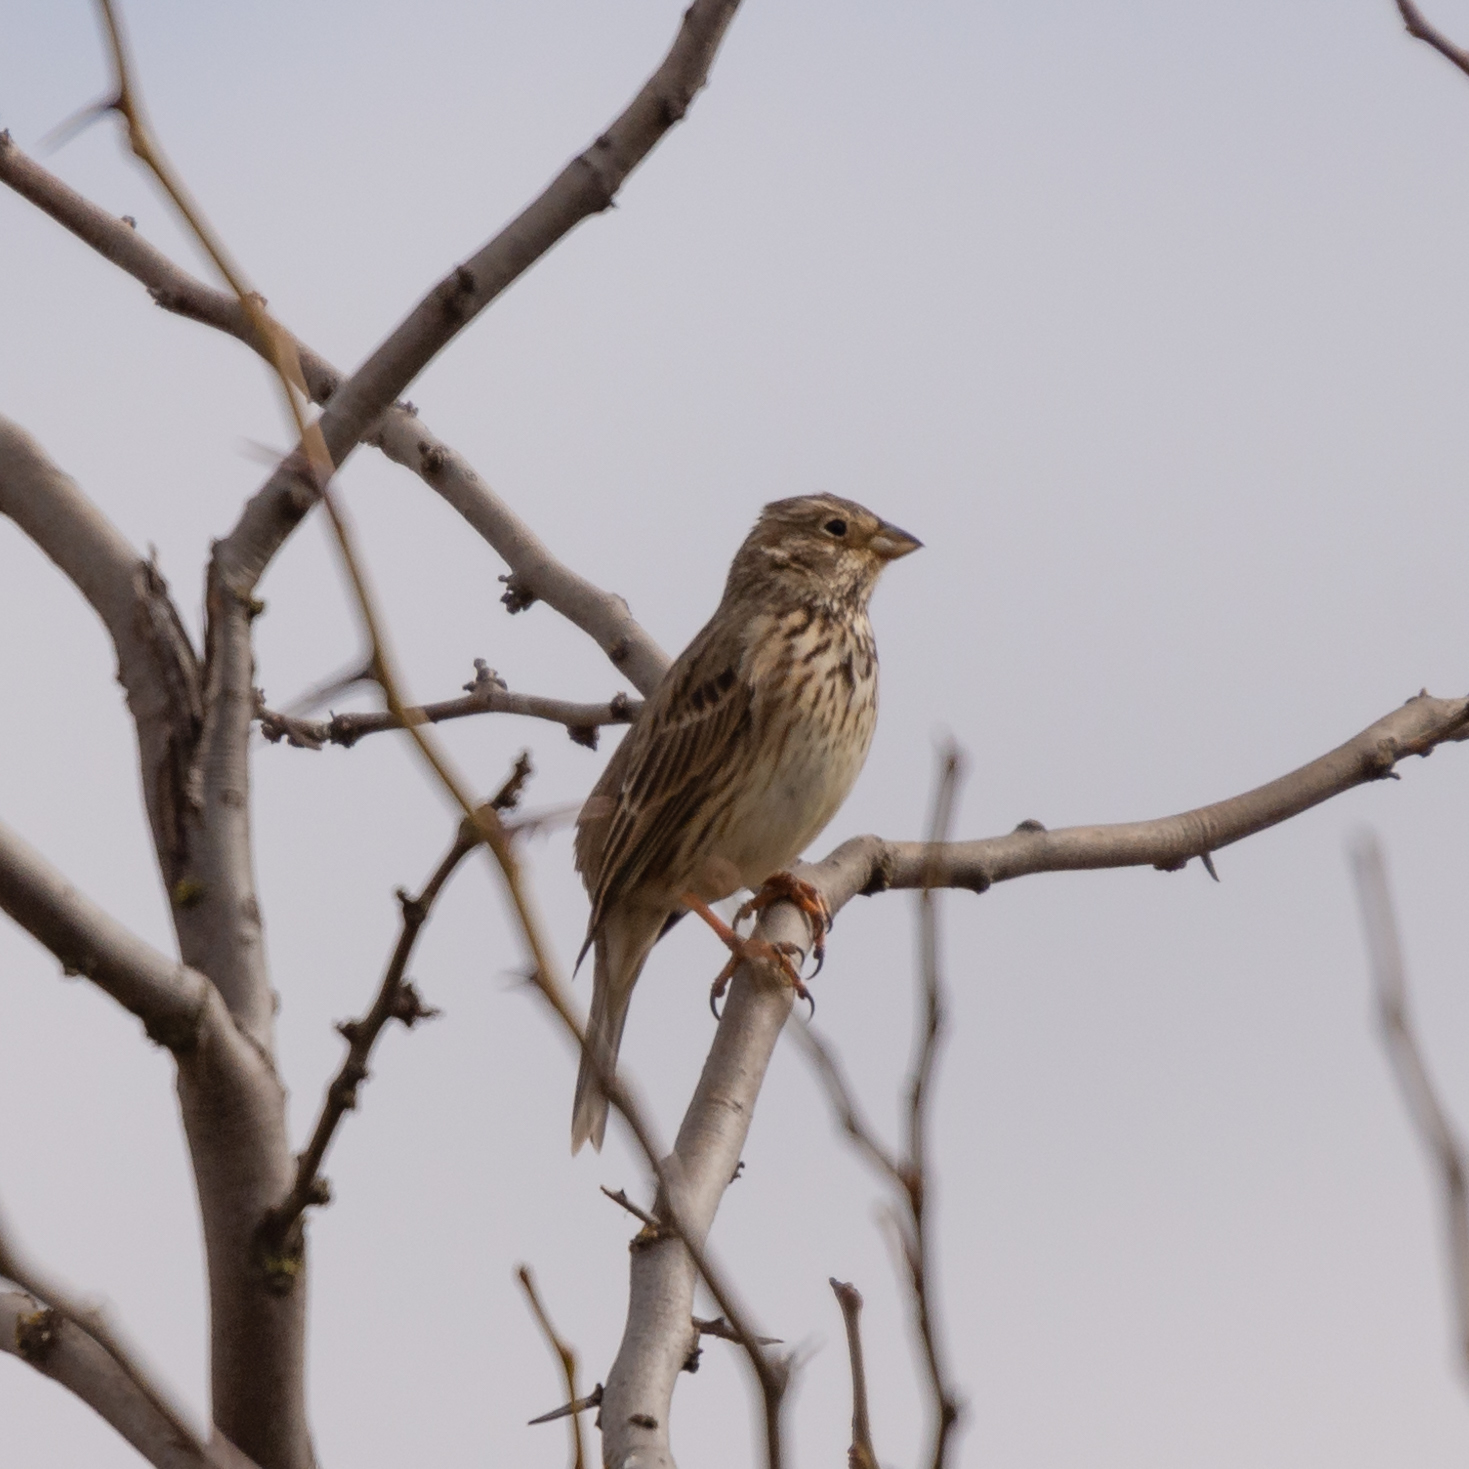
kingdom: Animalia
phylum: Chordata
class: Aves
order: Passeriformes
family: Emberizidae
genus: Emberiza
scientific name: Emberiza calandra
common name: Corn bunting
